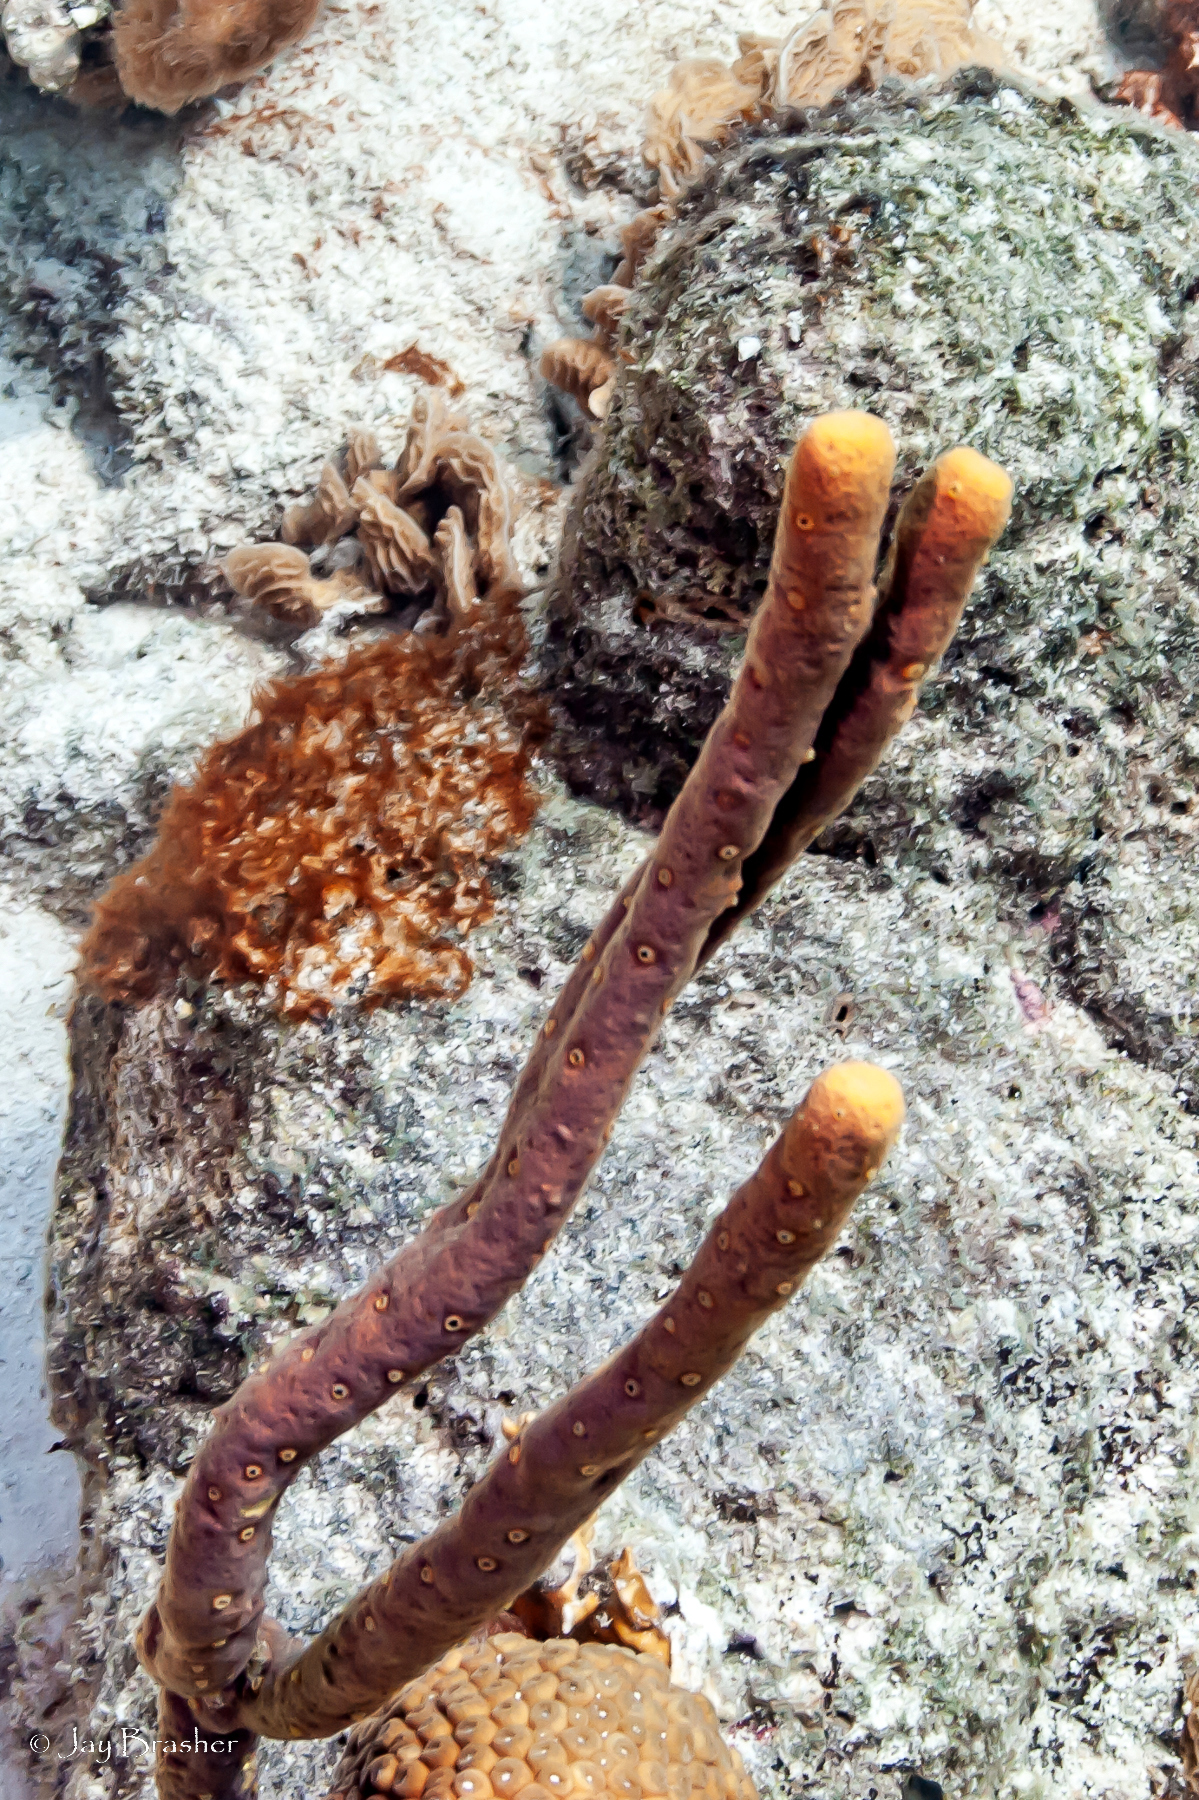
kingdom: Animalia
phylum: Porifera
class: Demospongiae
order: Verongiida
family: Aplysinidae
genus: Aplysina
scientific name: Aplysina cauliformis
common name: Branching candle sponge
